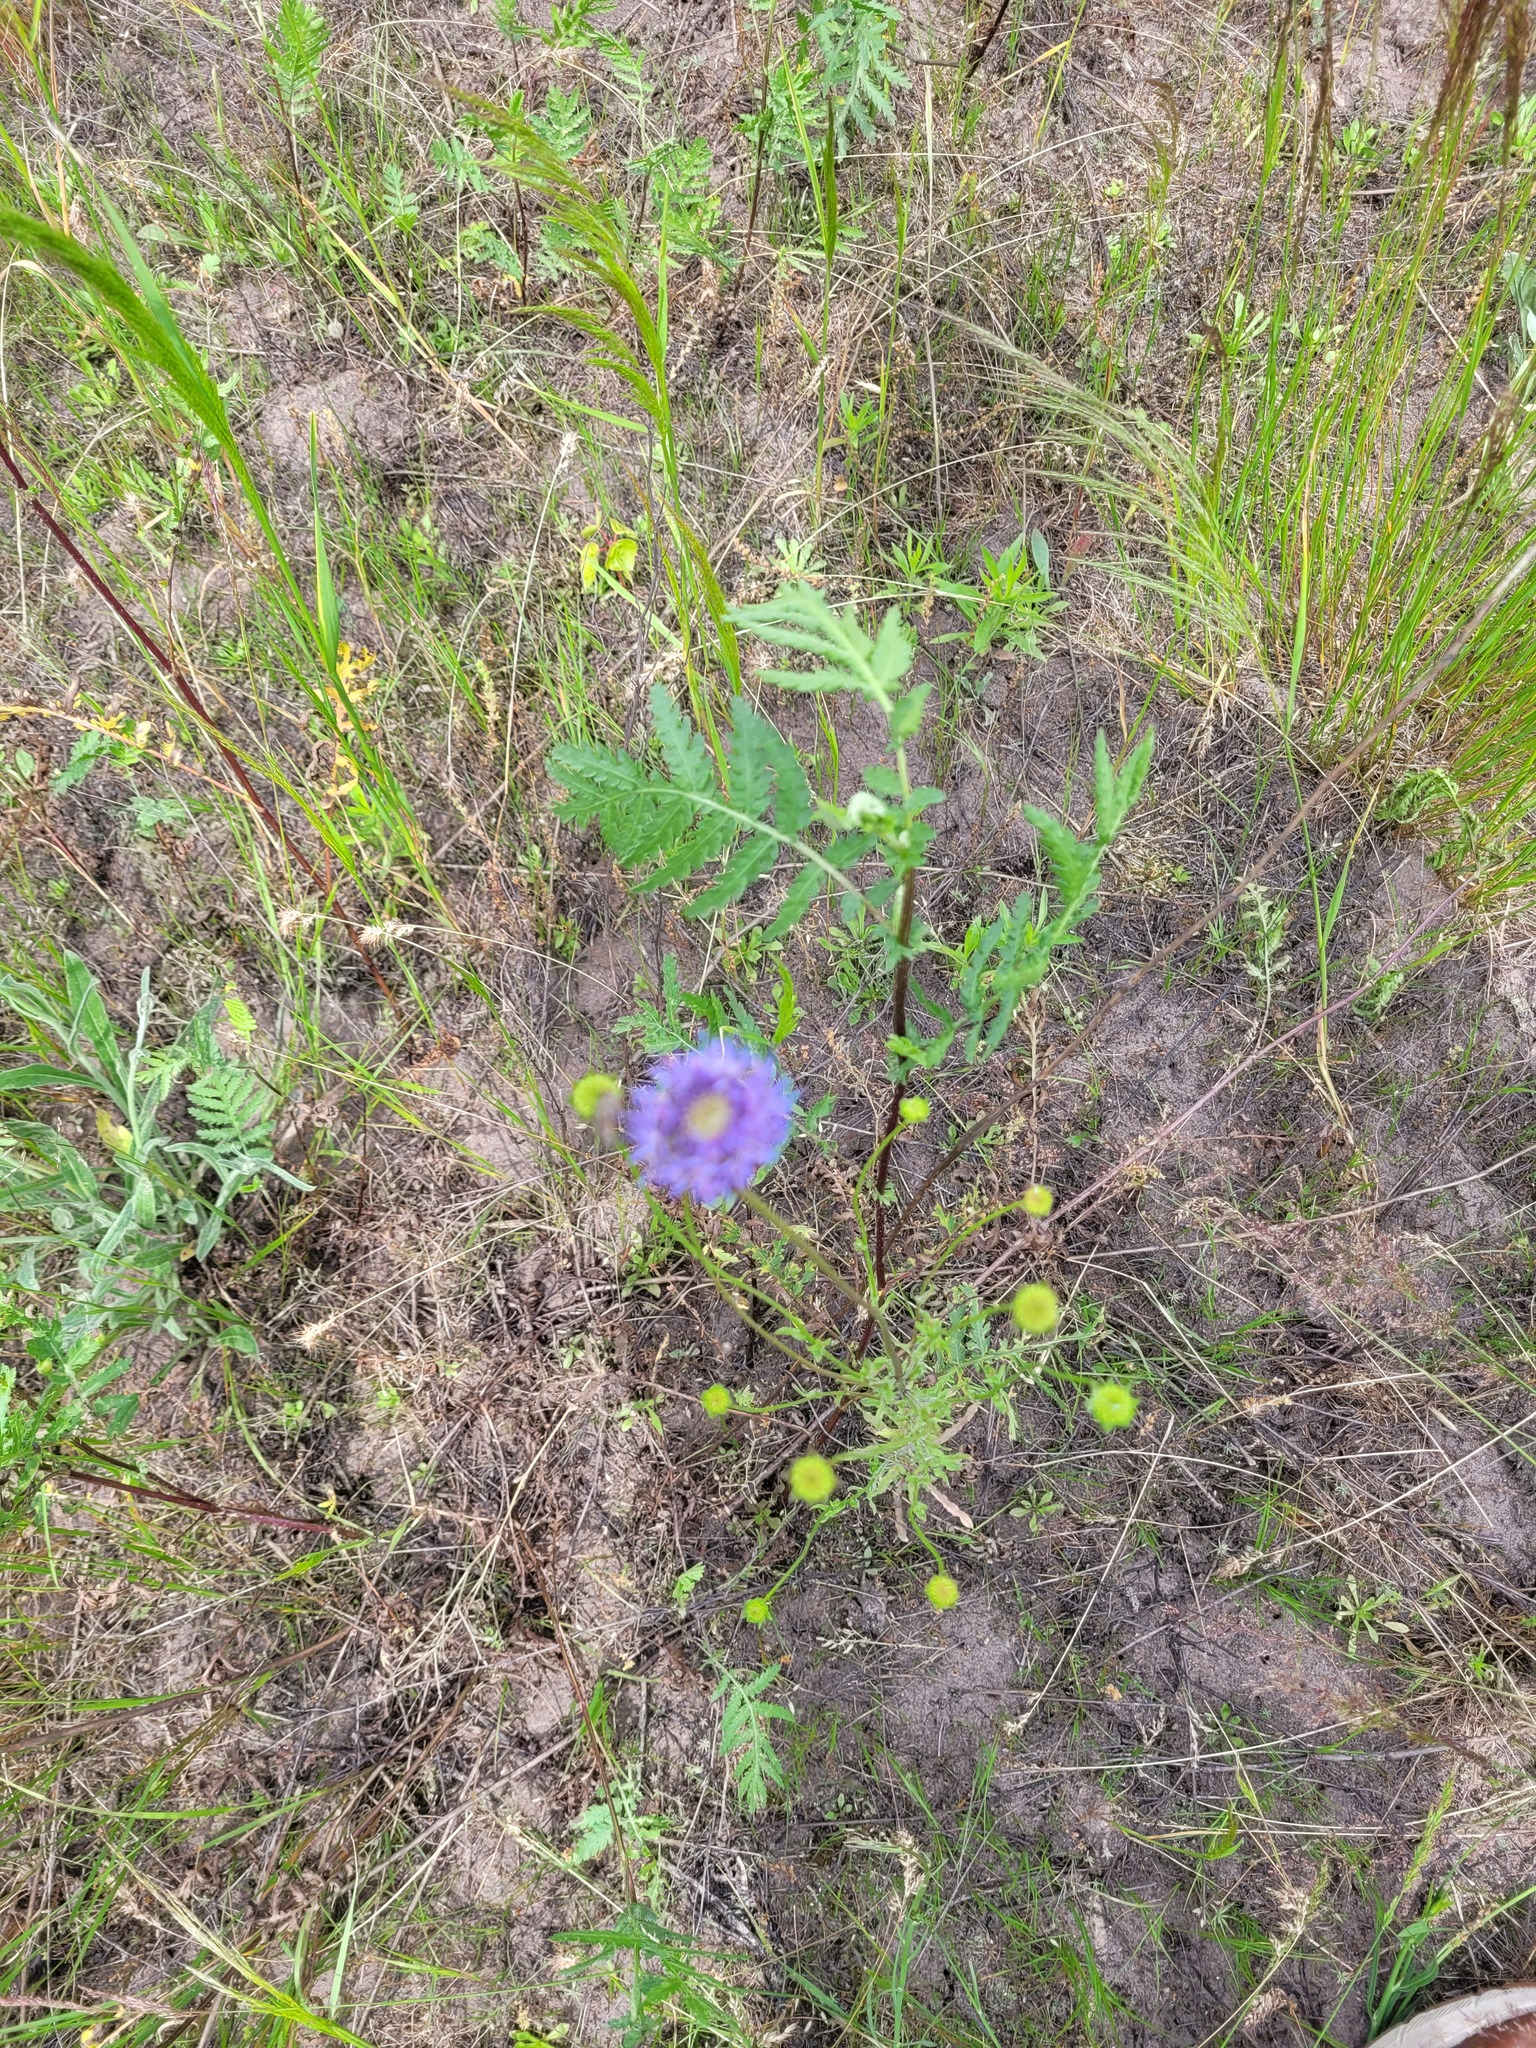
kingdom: Plantae
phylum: Tracheophyta
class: Magnoliopsida
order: Asterales
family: Campanulaceae
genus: Jasione
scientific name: Jasione montana
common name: Sheep's-bit
